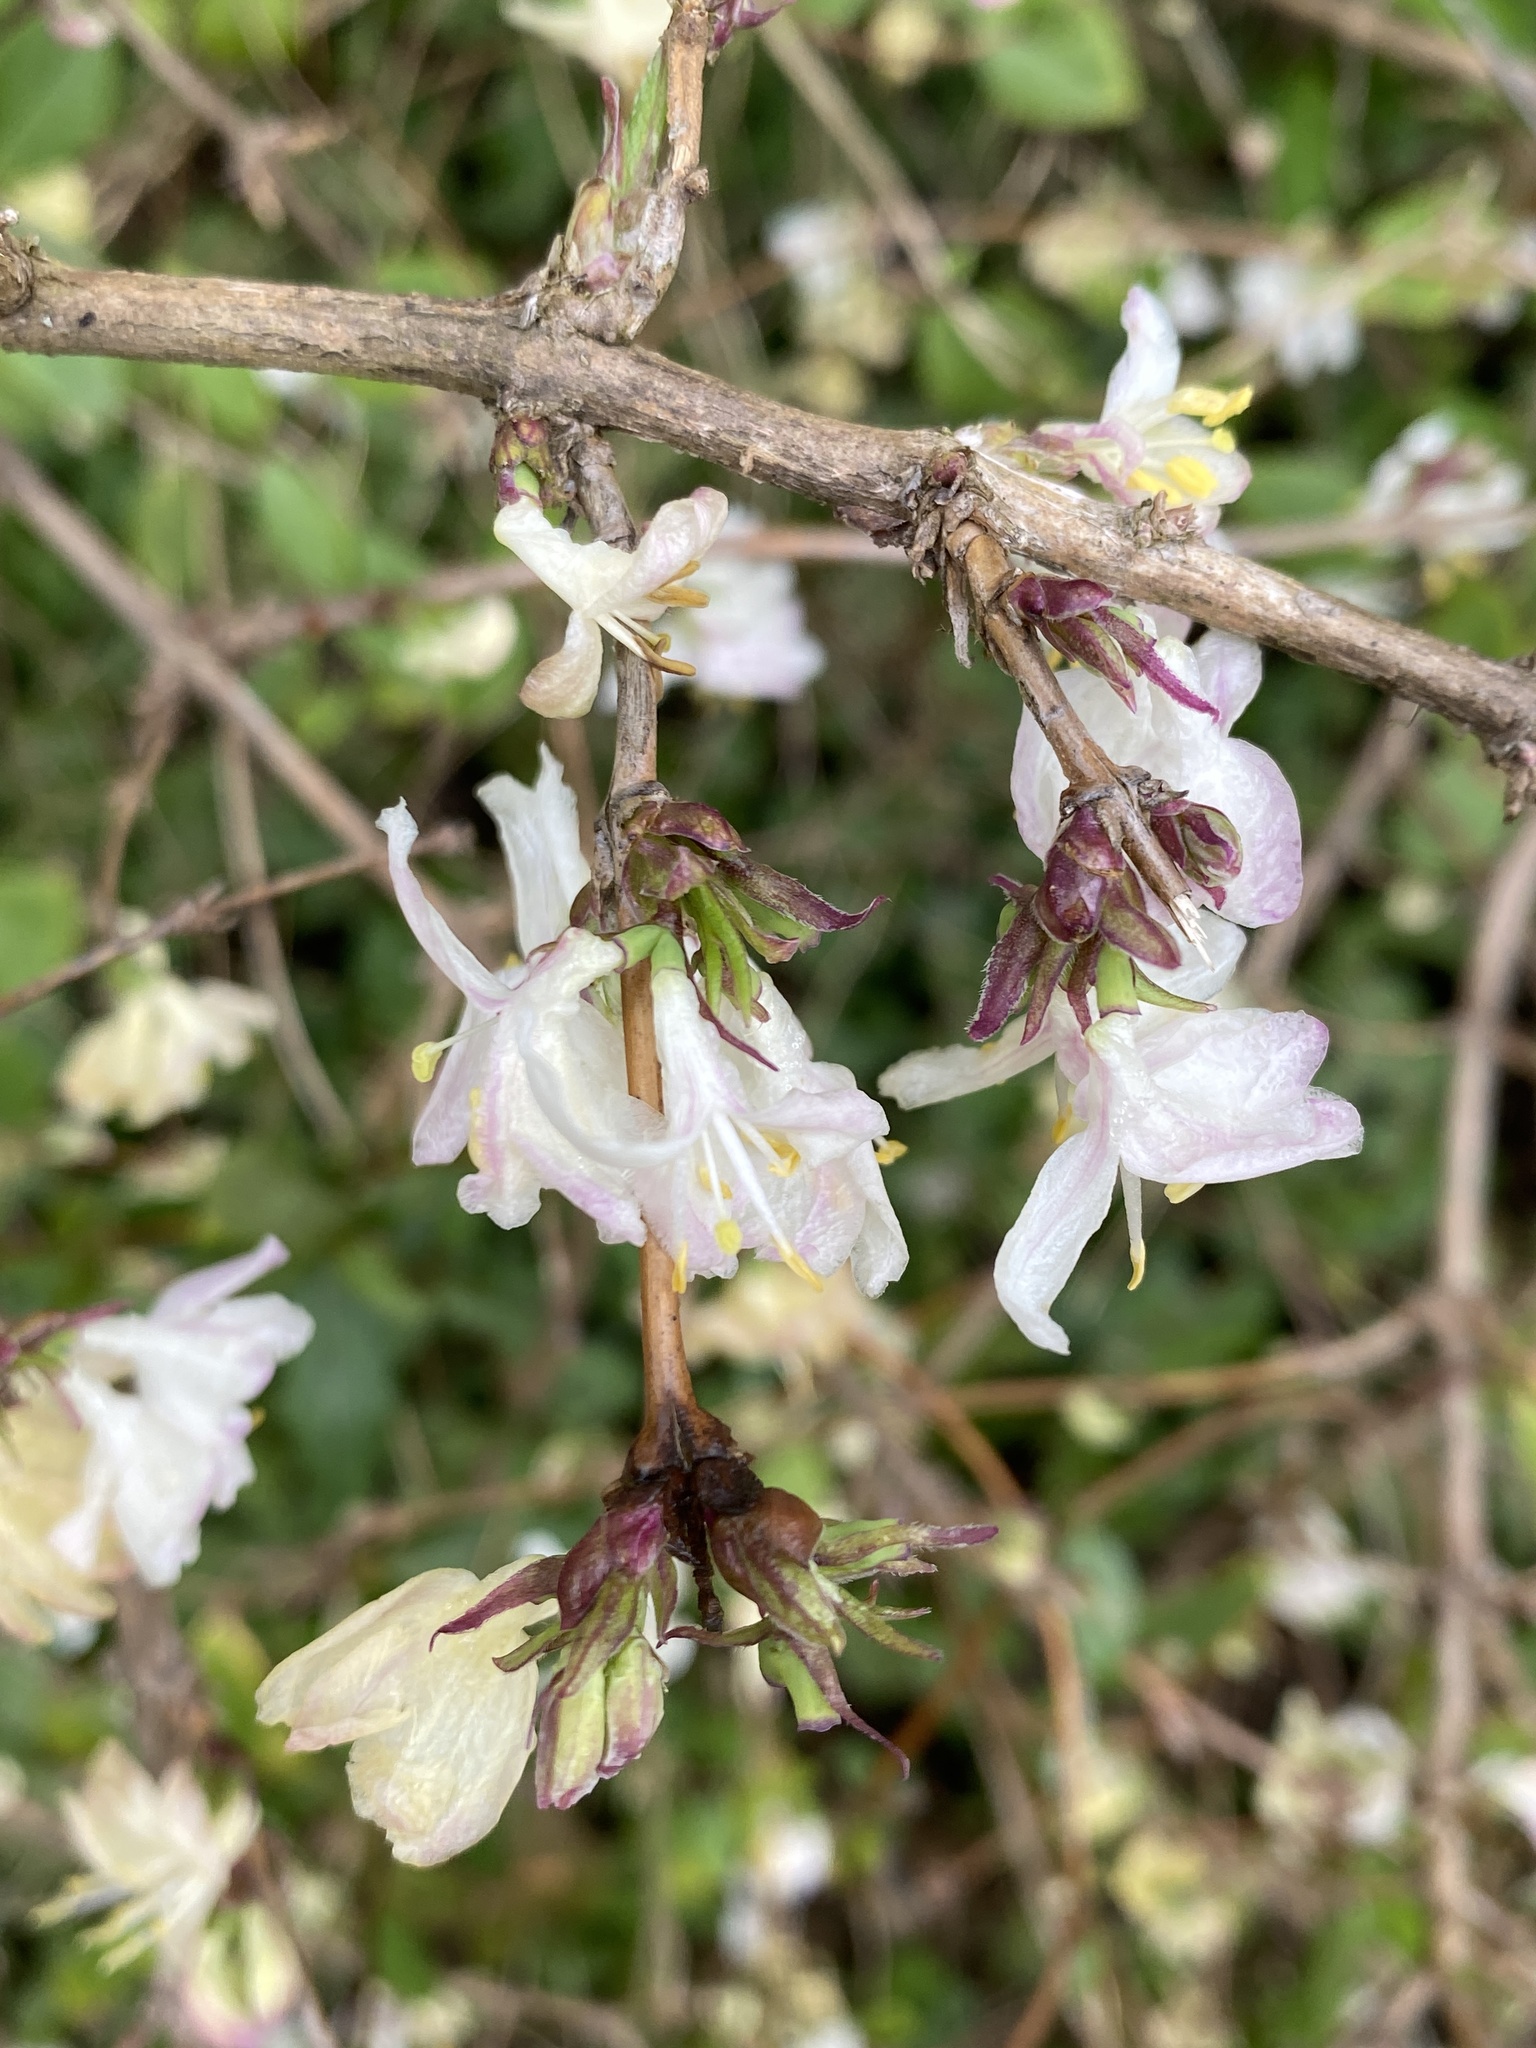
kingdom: Plantae
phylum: Tracheophyta
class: Magnoliopsida
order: Dipsacales
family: Caprifoliaceae
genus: Lonicera
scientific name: Lonicera fragrantissima
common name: Fragrant honeysuckle
